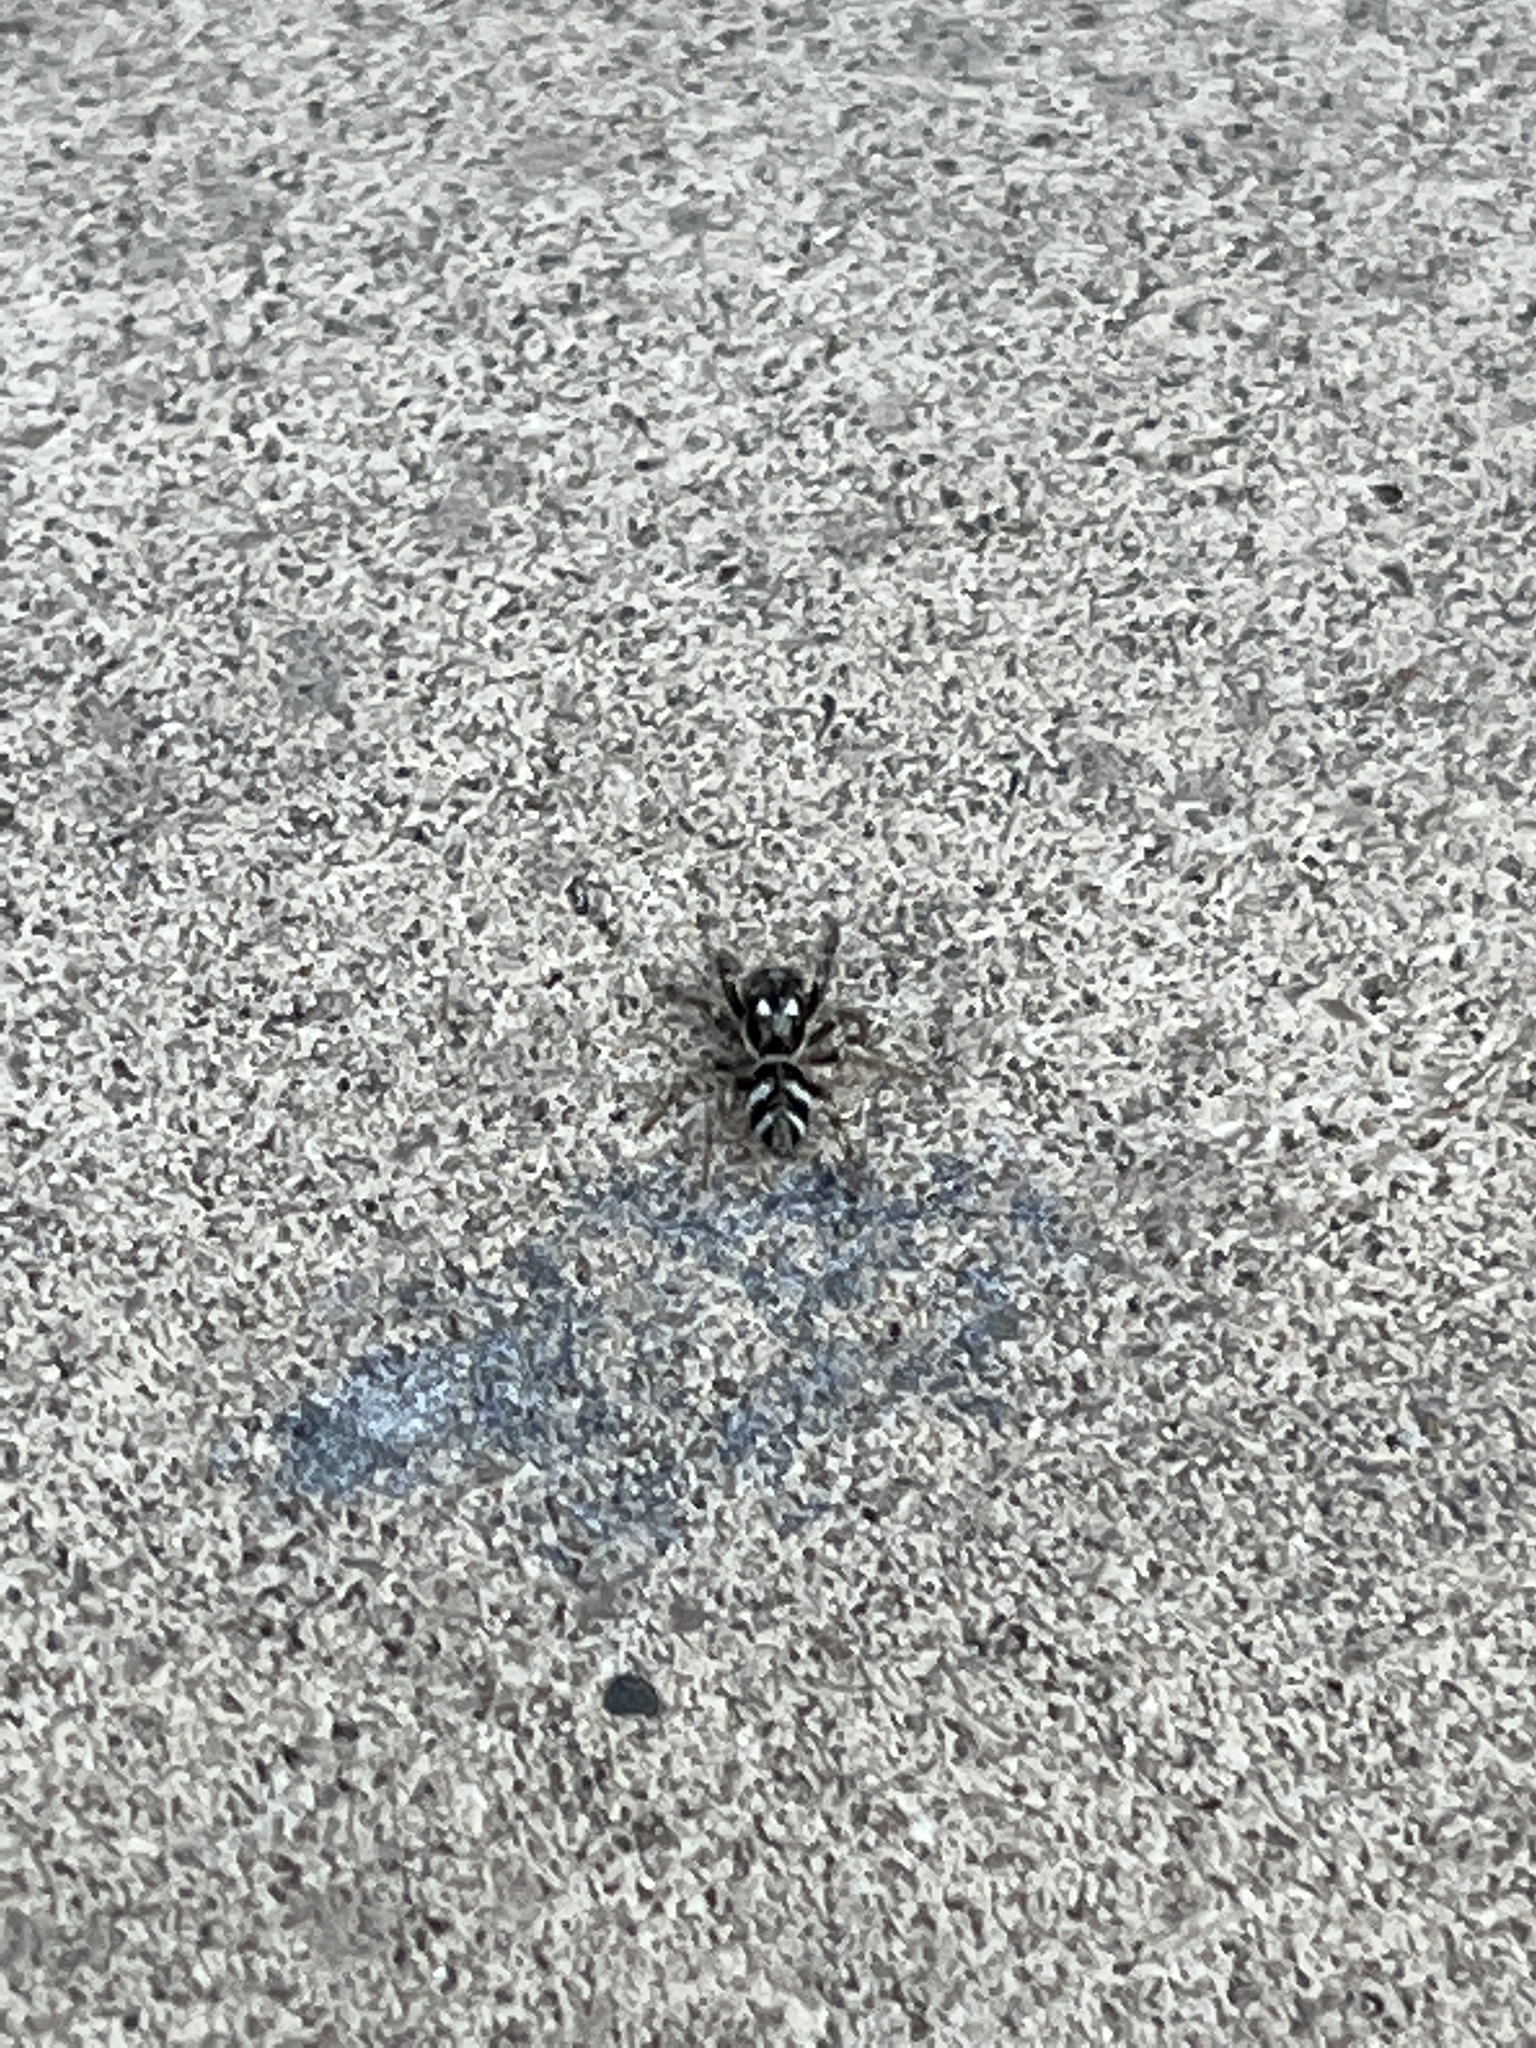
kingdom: Animalia
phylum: Arthropoda
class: Arachnida
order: Araneae
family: Salticidae
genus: Salticus
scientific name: Salticus scenicus
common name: Zebra jumper
